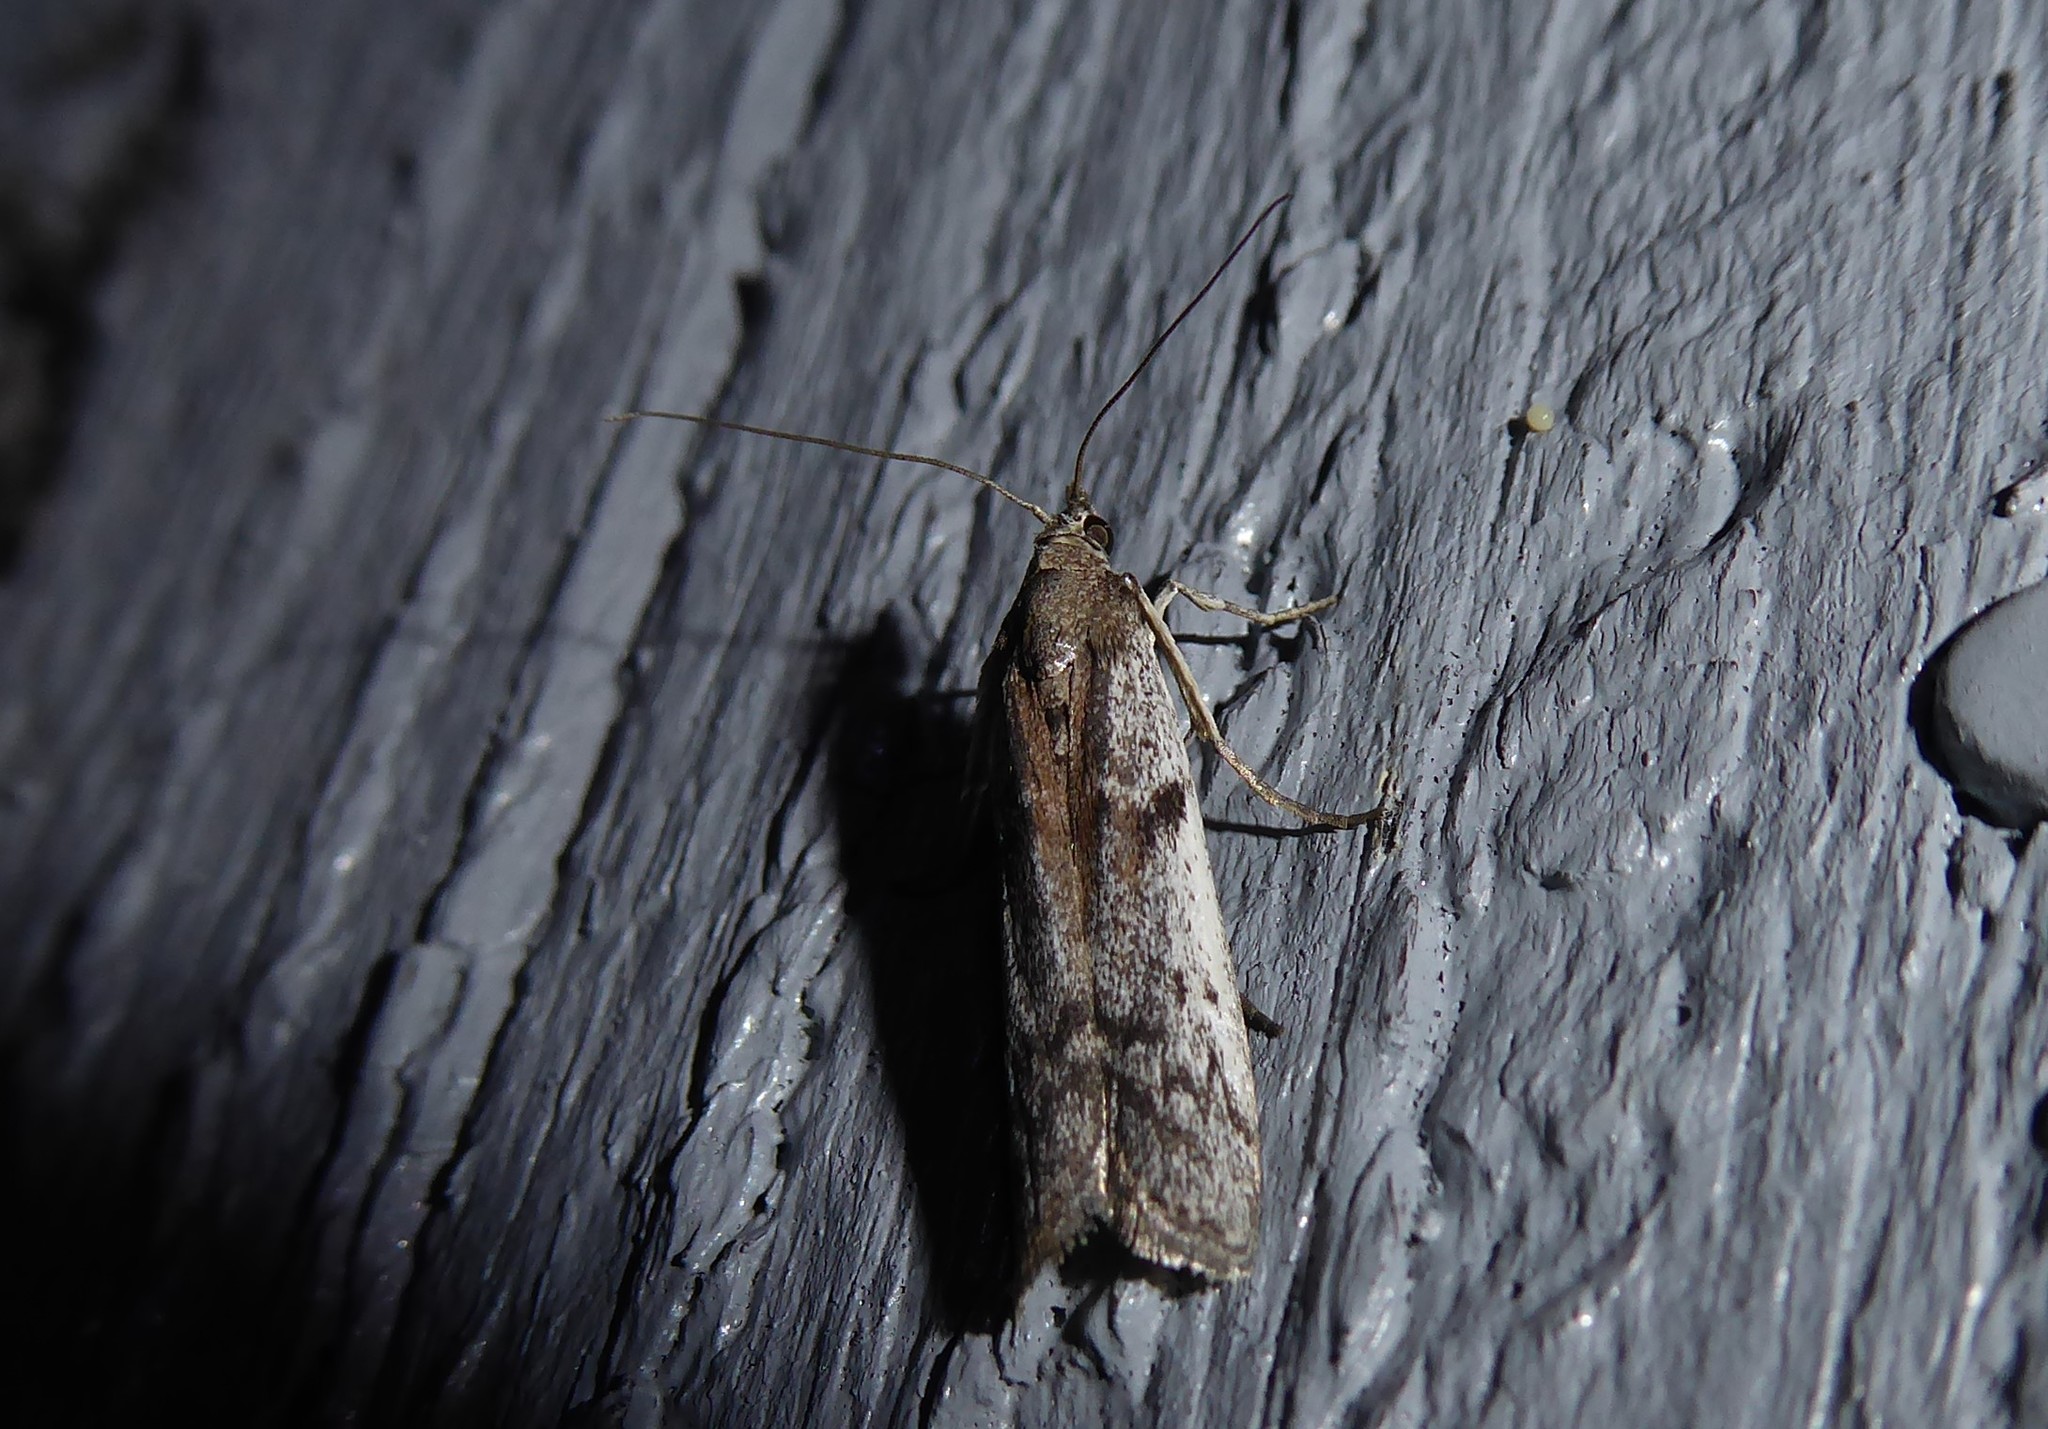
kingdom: Animalia
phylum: Arthropoda
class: Insecta
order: Lepidoptera
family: Pyralidae
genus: Patagoniodes
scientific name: Patagoniodes farinaria
